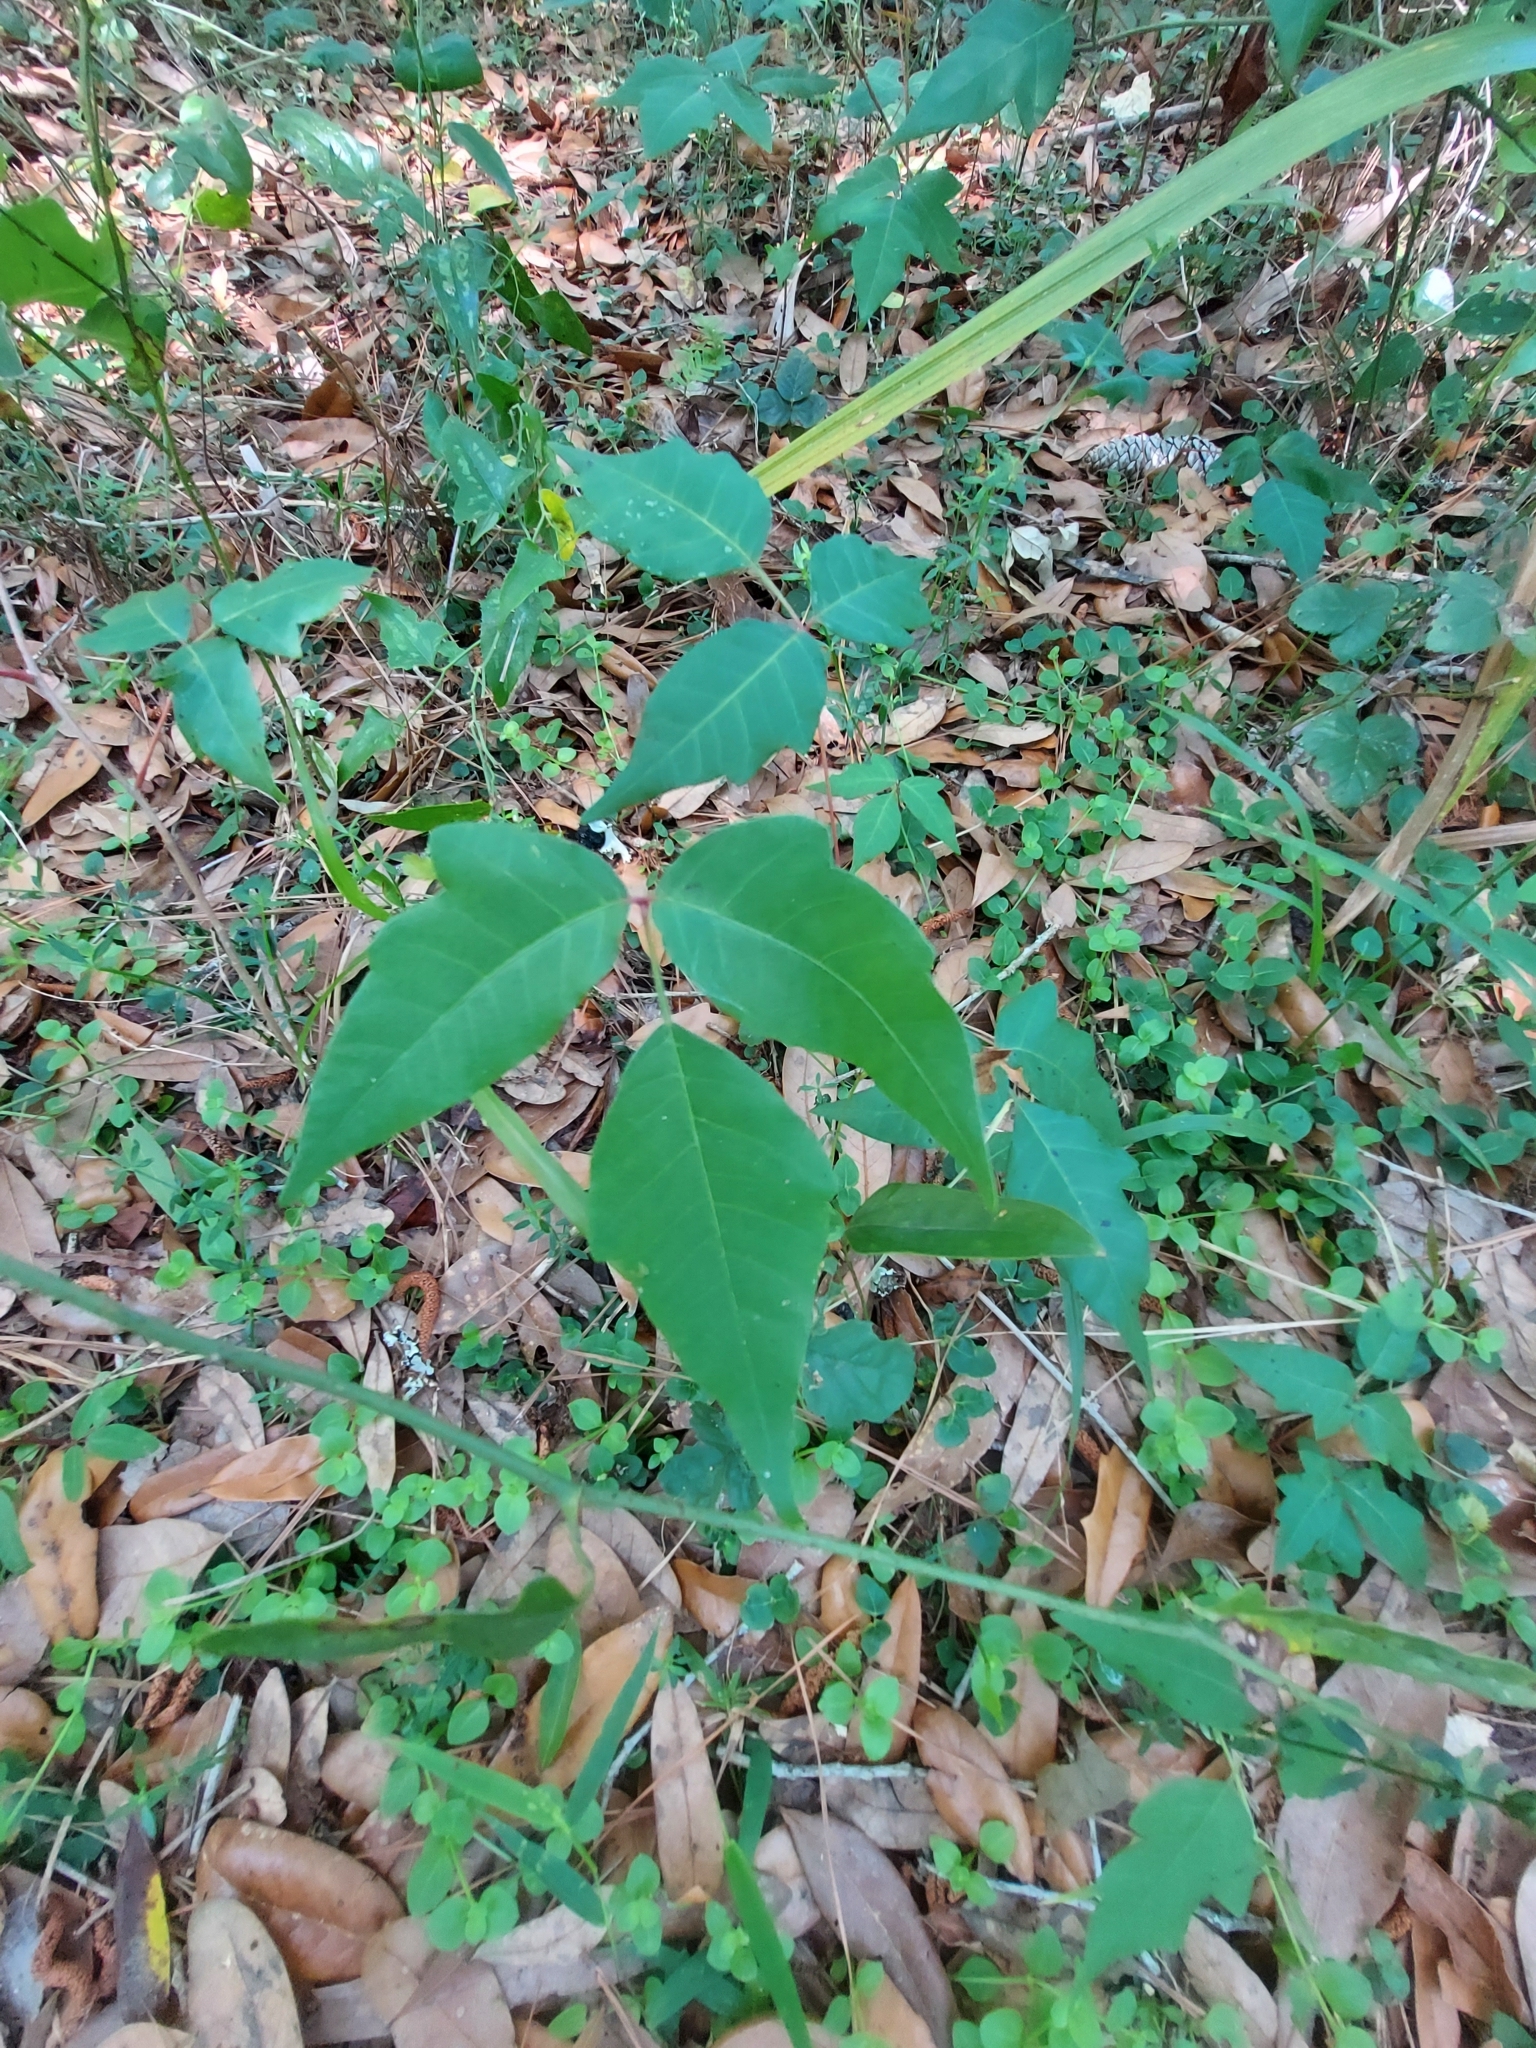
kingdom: Plantae
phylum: Tracheophyta
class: Magnoliopsida
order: Sapindales
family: Anacardiaceae
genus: Toxicodendron
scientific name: Toxicodendron radicans
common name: Poison ivy
